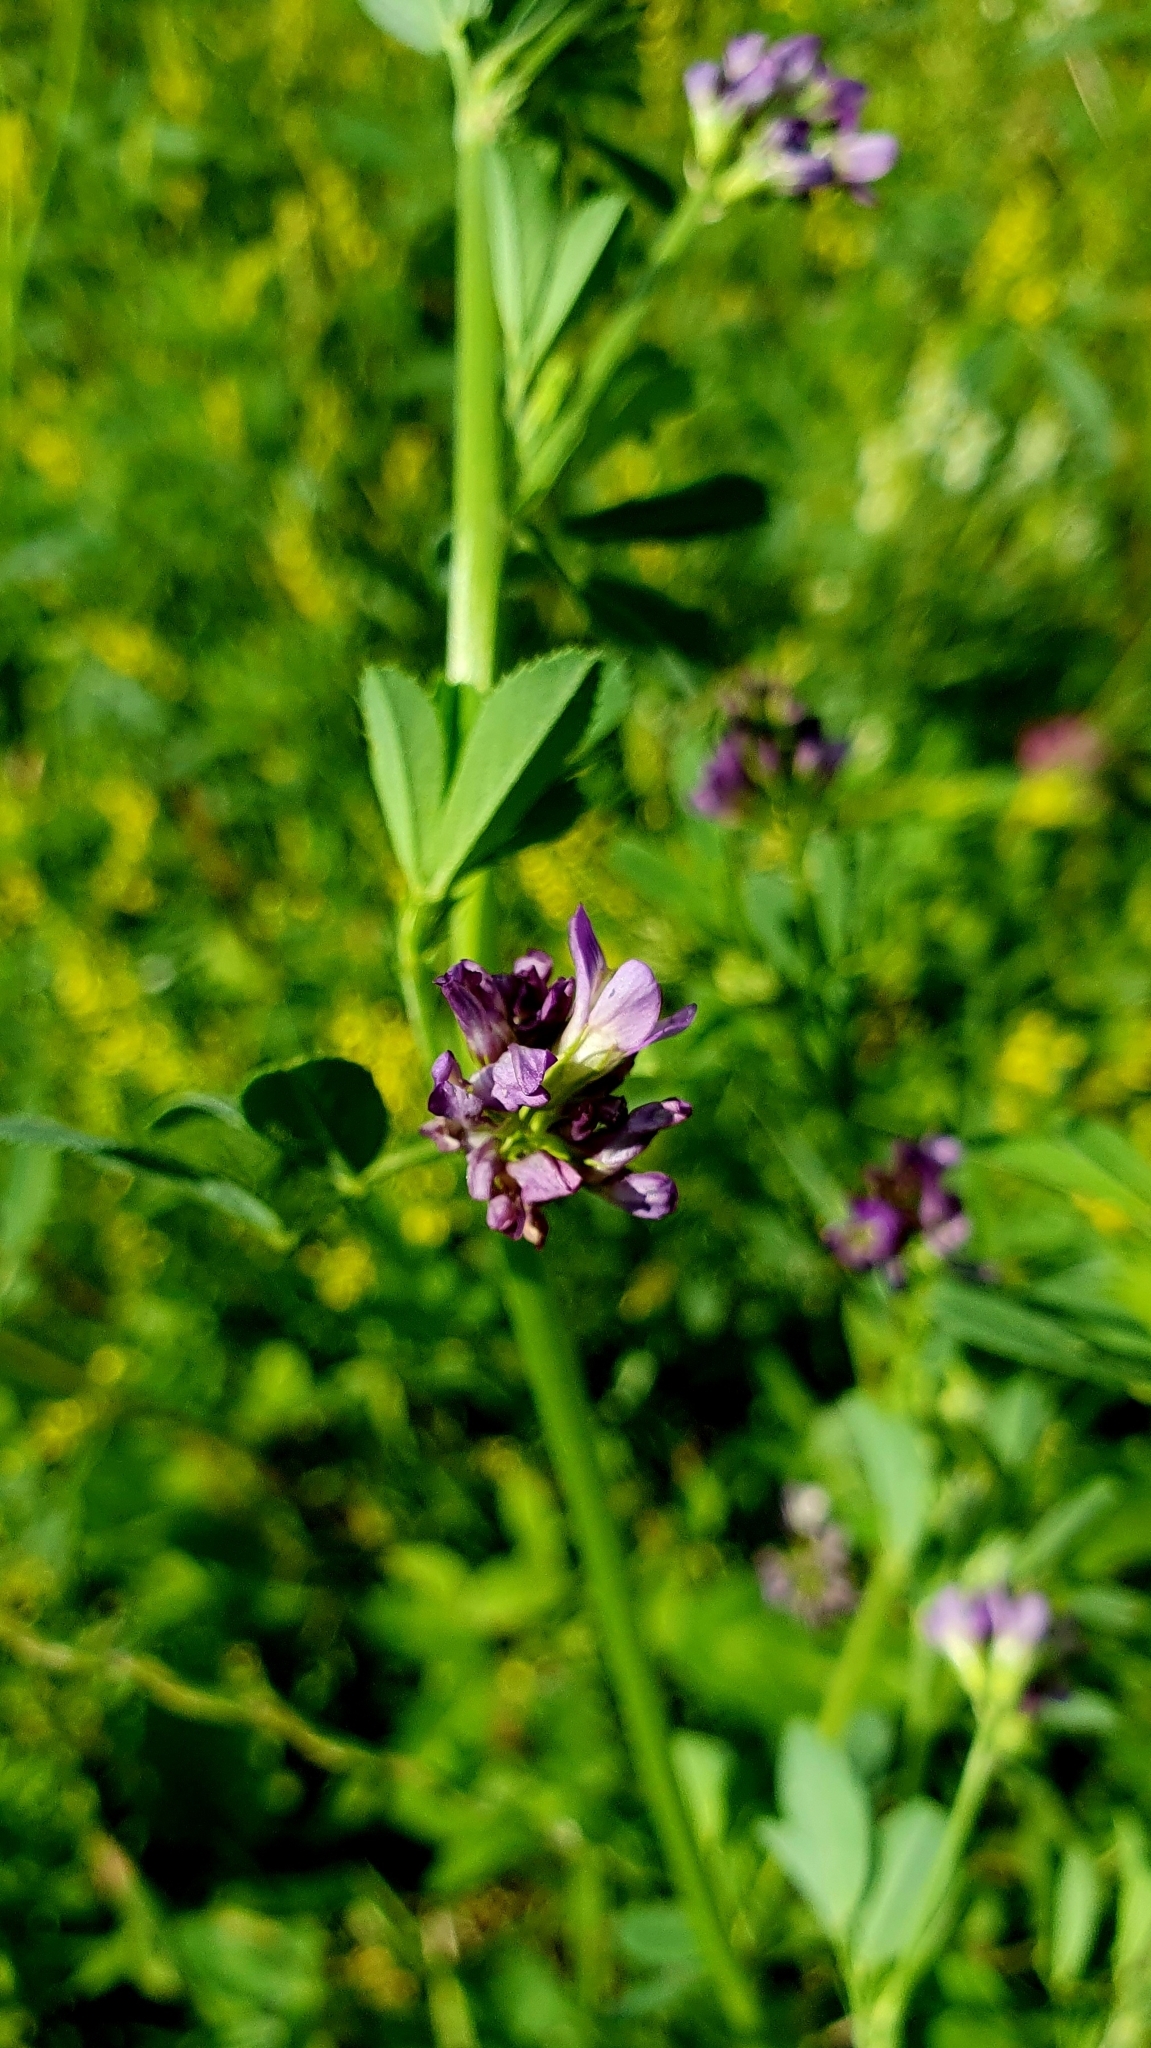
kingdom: Plantae
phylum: Tracheophyta
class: Magnoliopsida
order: Fabales
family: Fabaceae
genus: Medicago
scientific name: Medicago sativa
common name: Alfalfa
